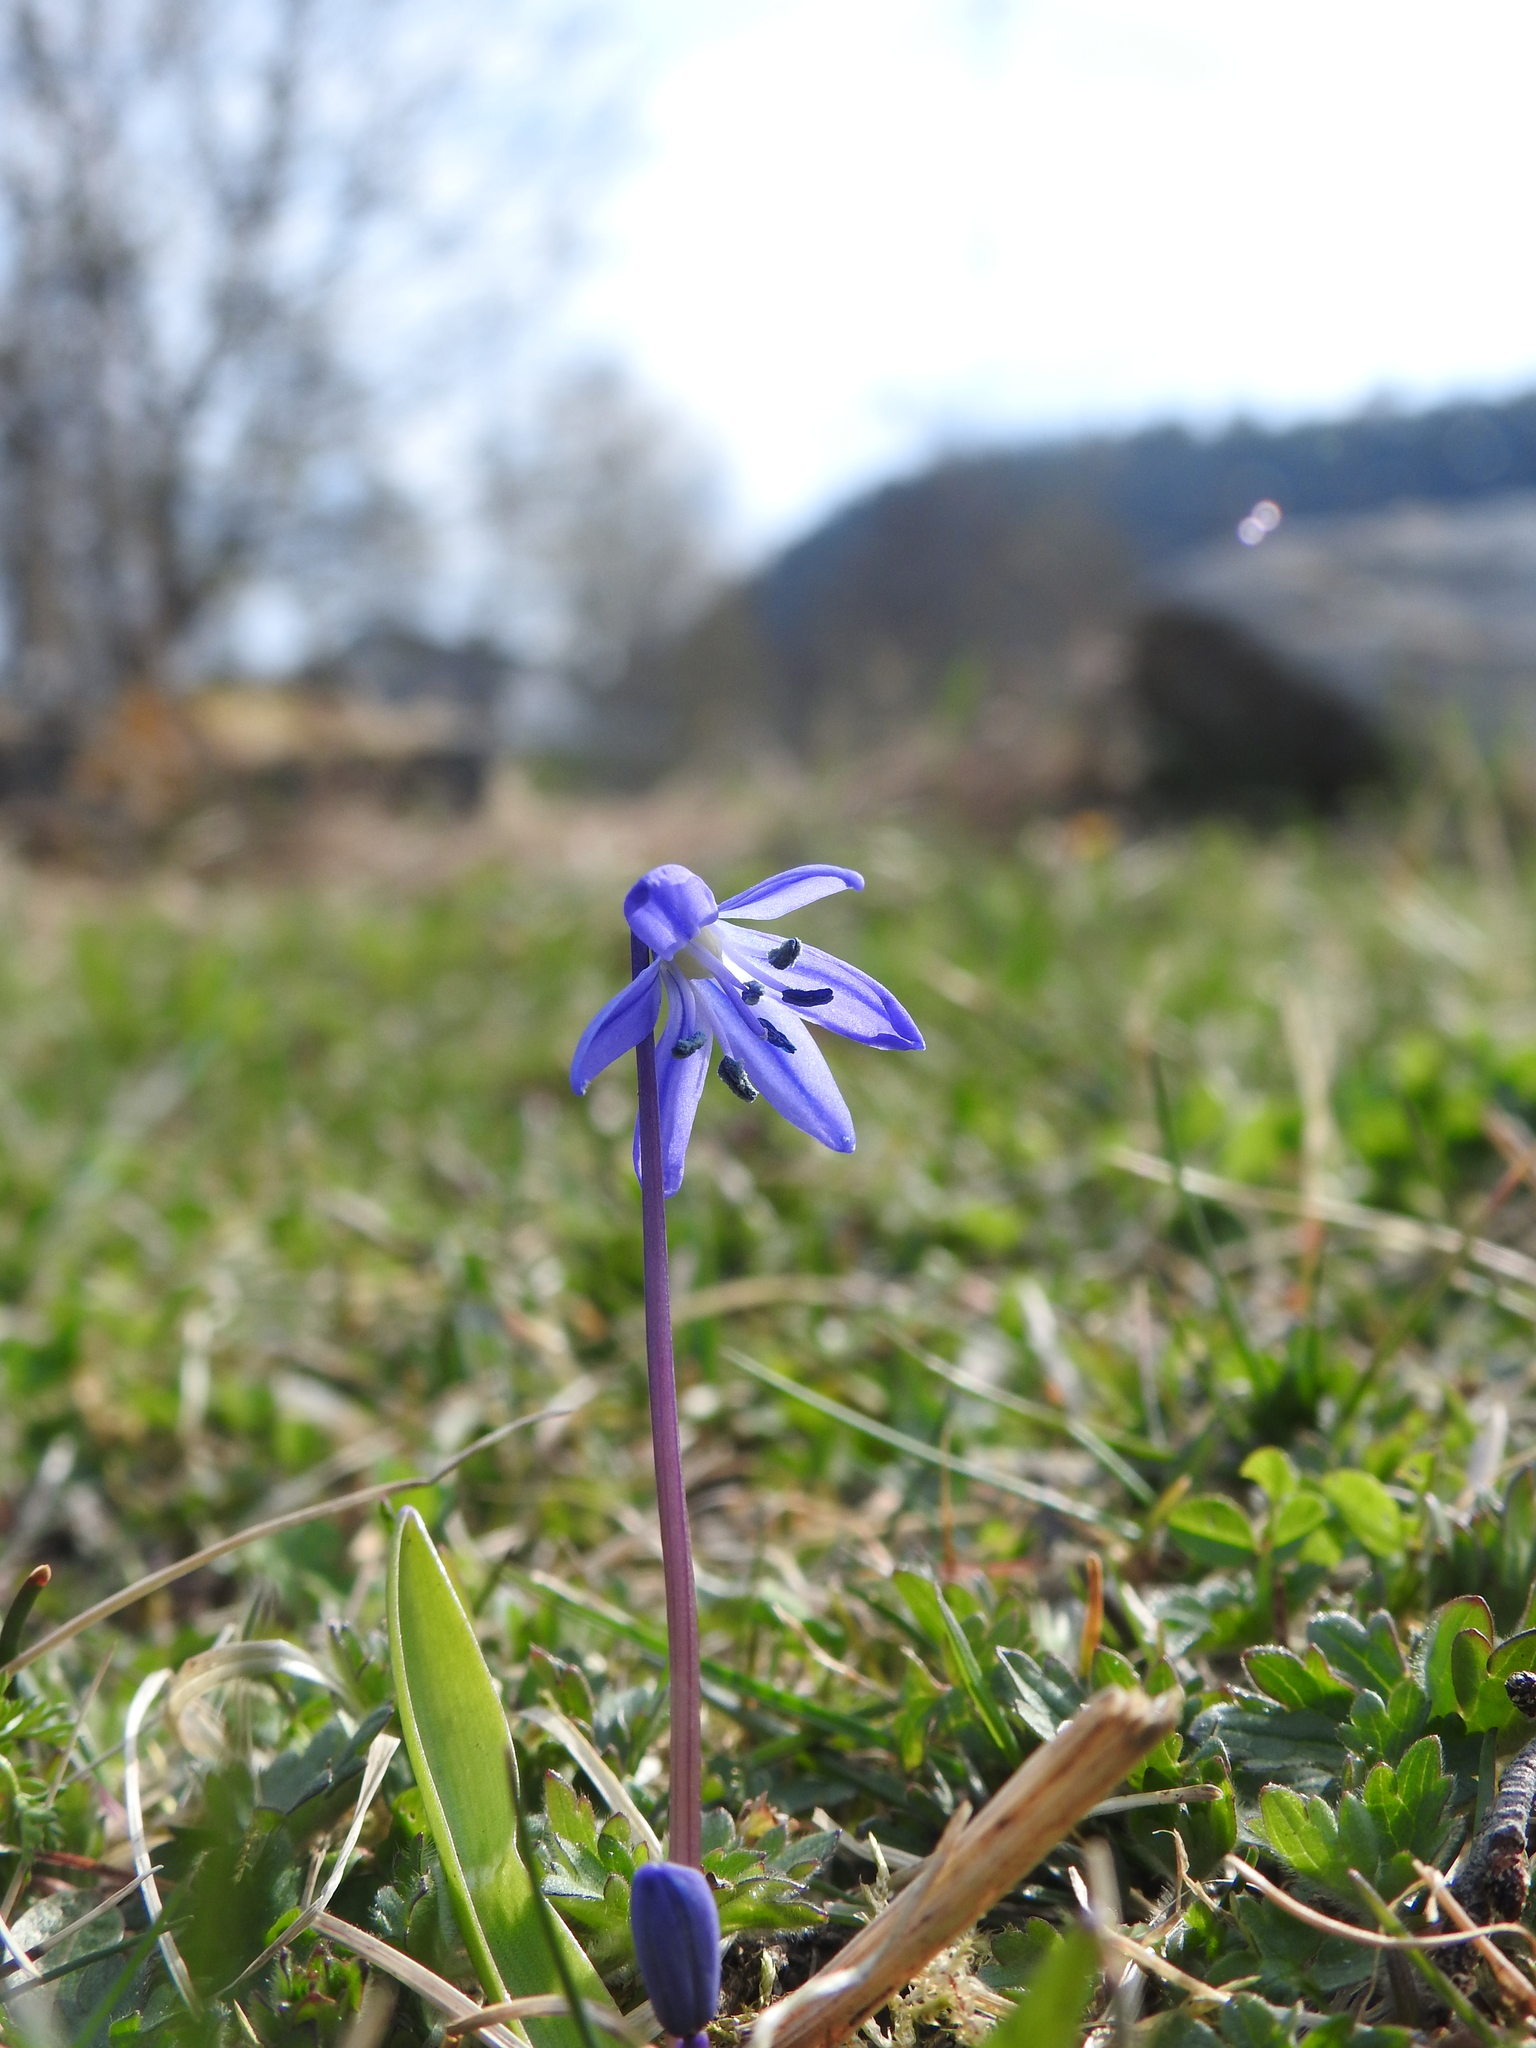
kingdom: Plantae
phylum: Tracheophyta
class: Liliopsida
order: Asparagales
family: Asparagaceae
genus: Scilla
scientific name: Scilla siberica
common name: Siberian squill
